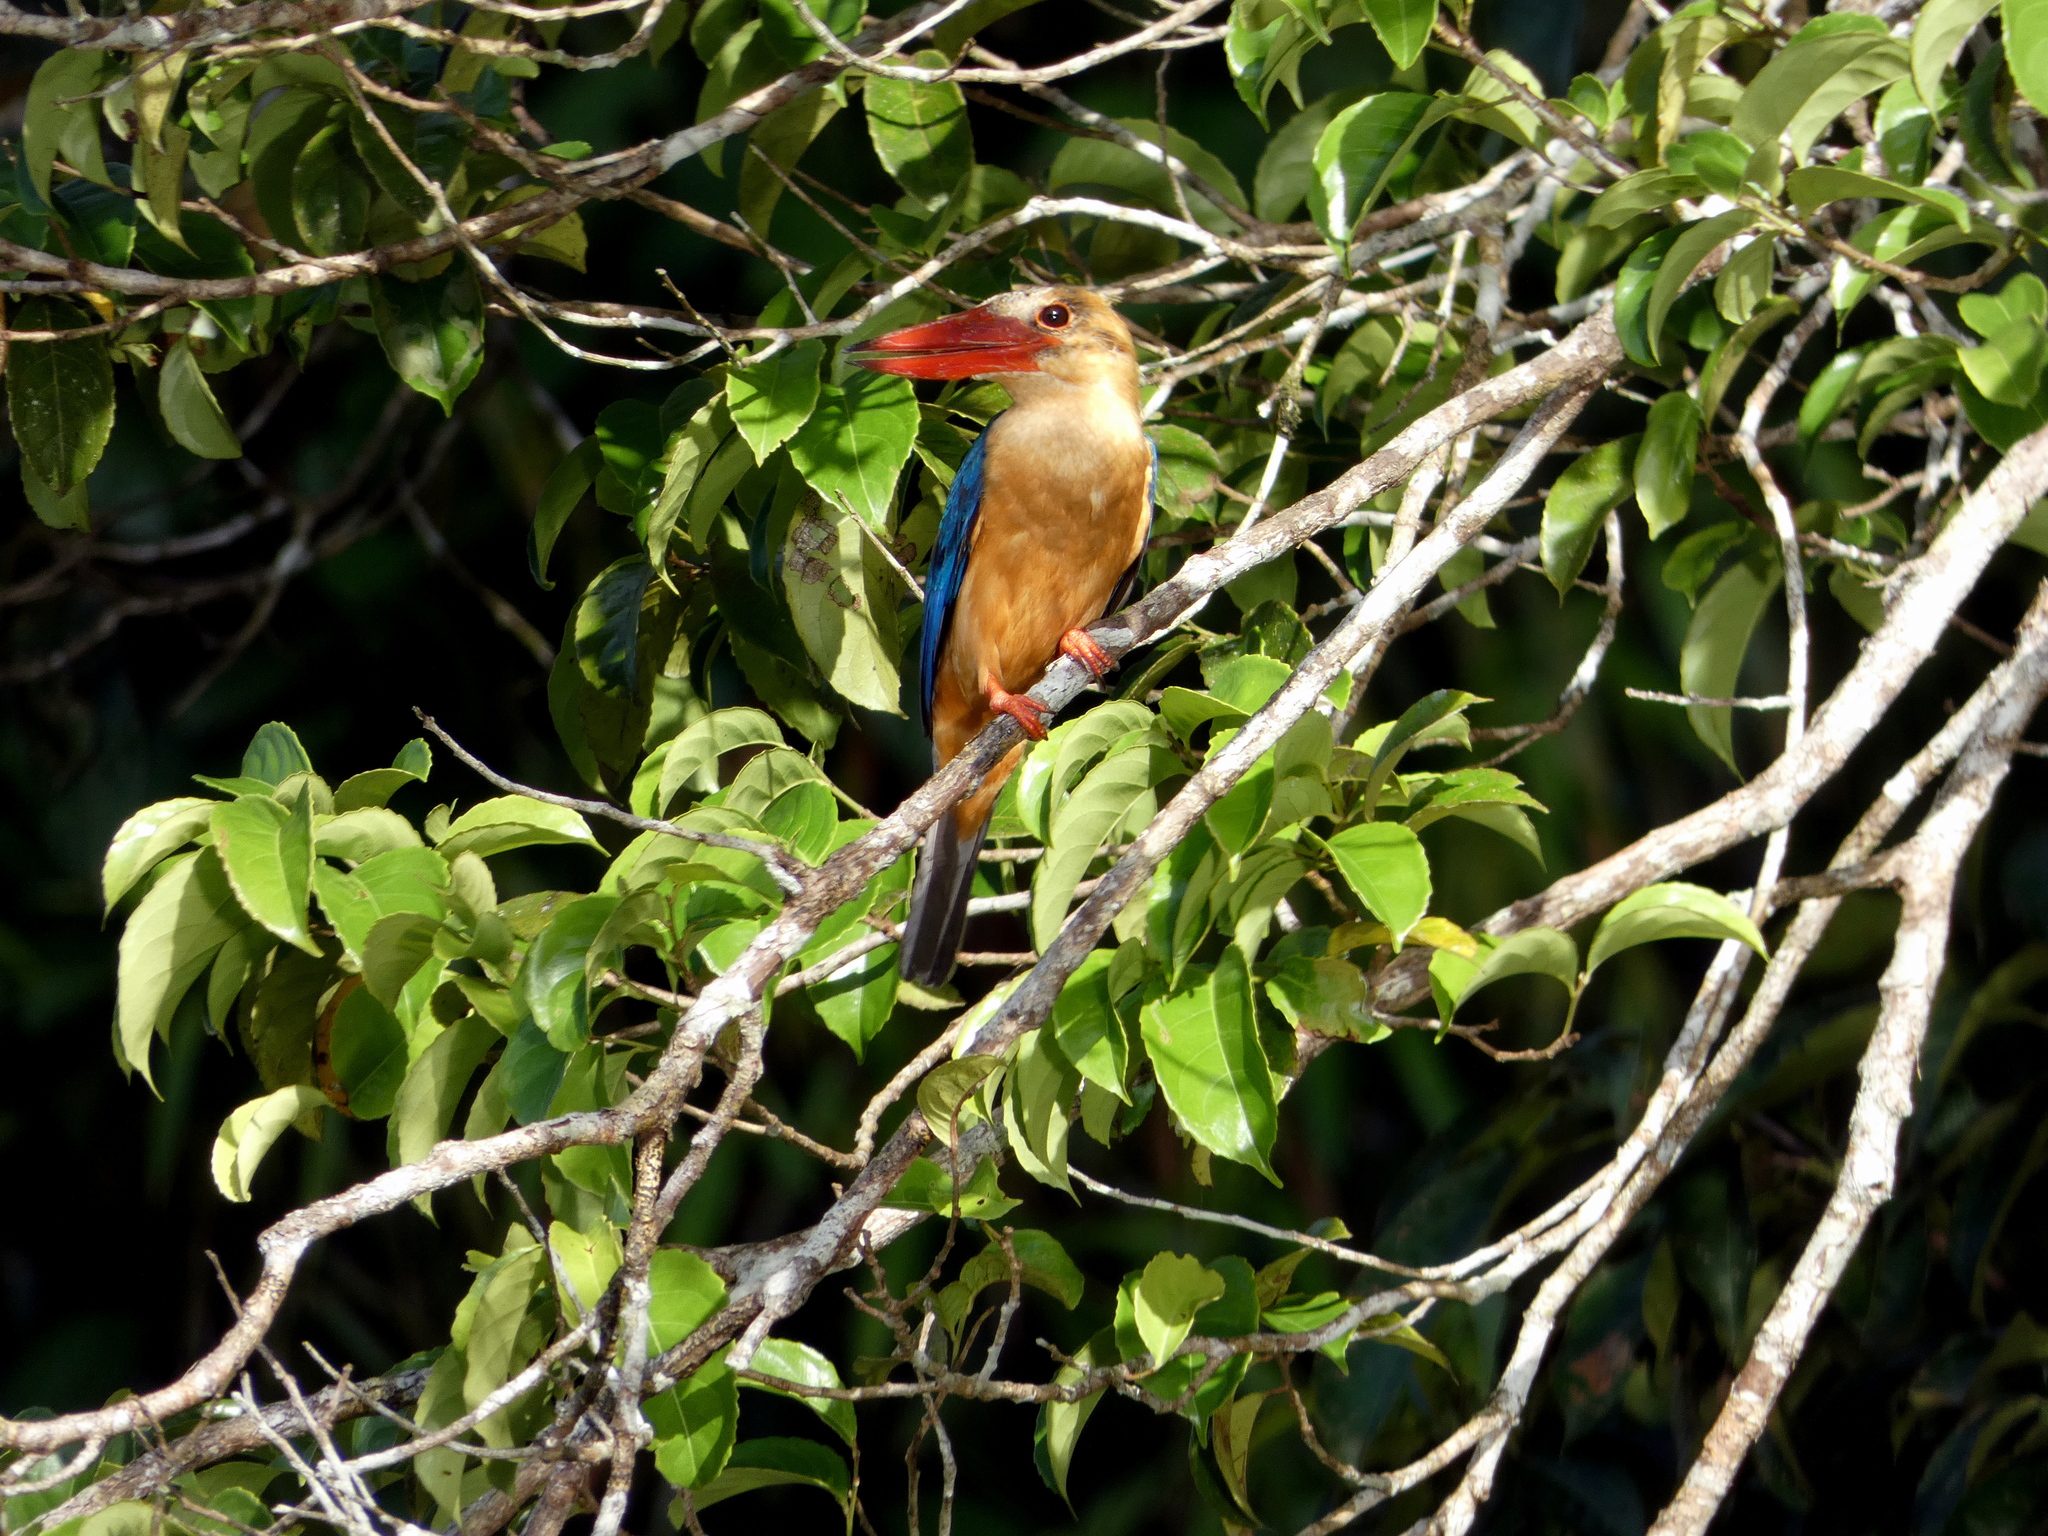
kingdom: Animalia
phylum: Chordata
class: Aves
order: Coraciiformes
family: Alcedinidae
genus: Pelargopsis
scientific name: Pelargopsis capensis
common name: Stork-billed kingfisher
